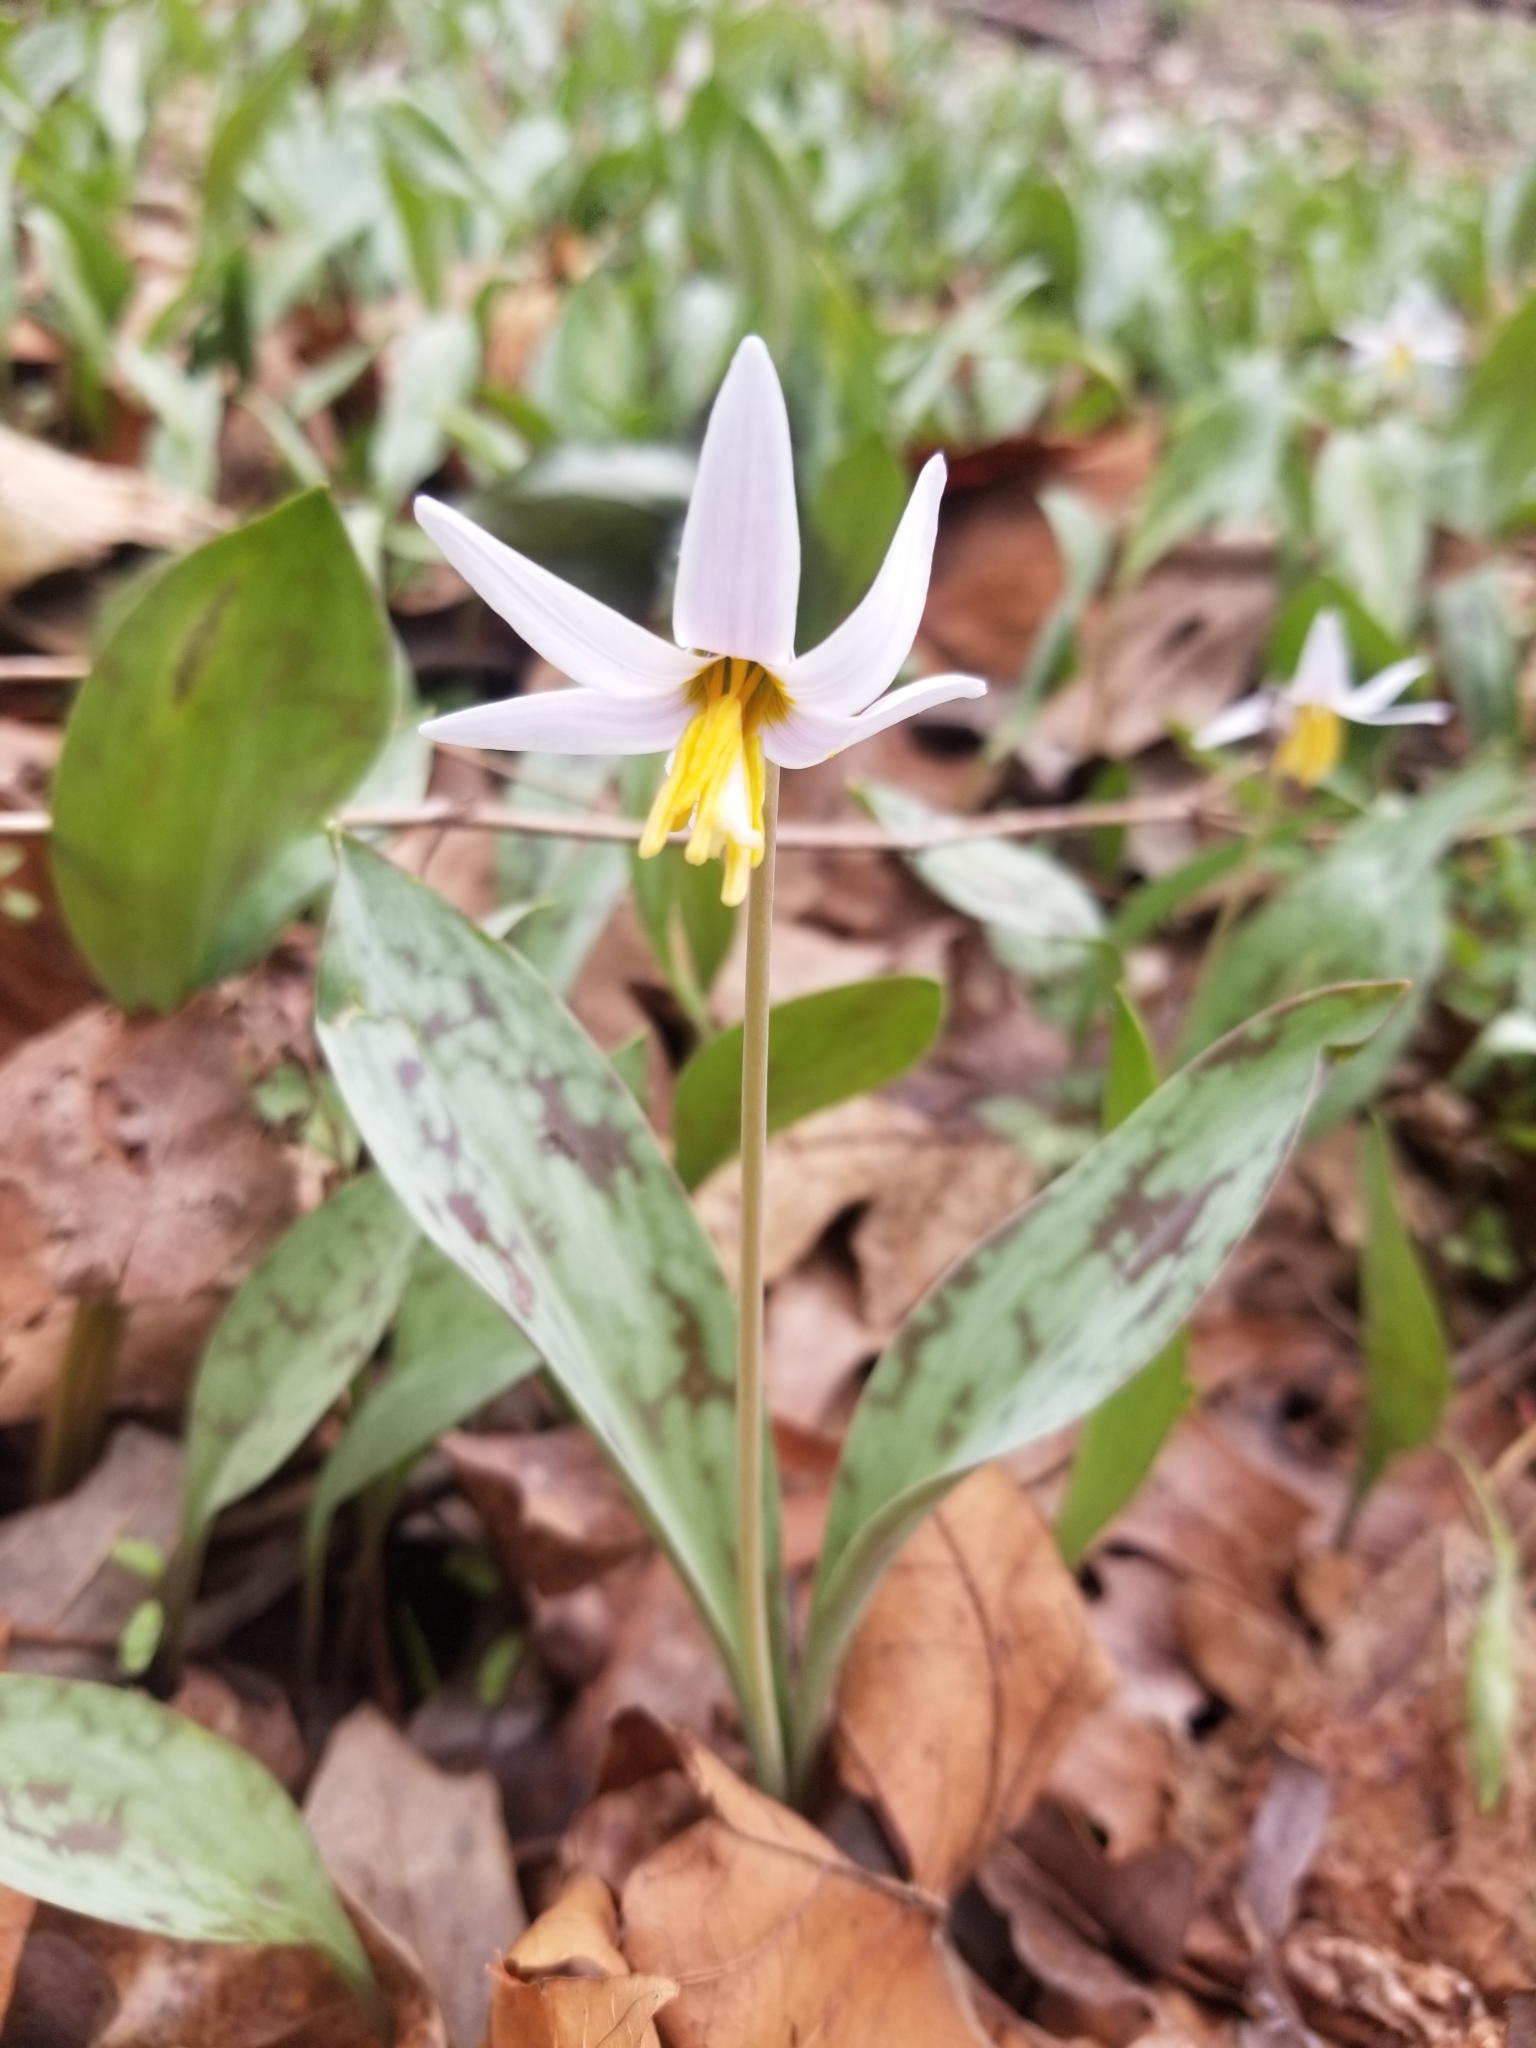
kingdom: Plantae
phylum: Tracheophyta
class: Liliopsida
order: Liliales
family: Liliaceae
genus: Erythronium
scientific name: Erythronium albidum
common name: White trout-lily
